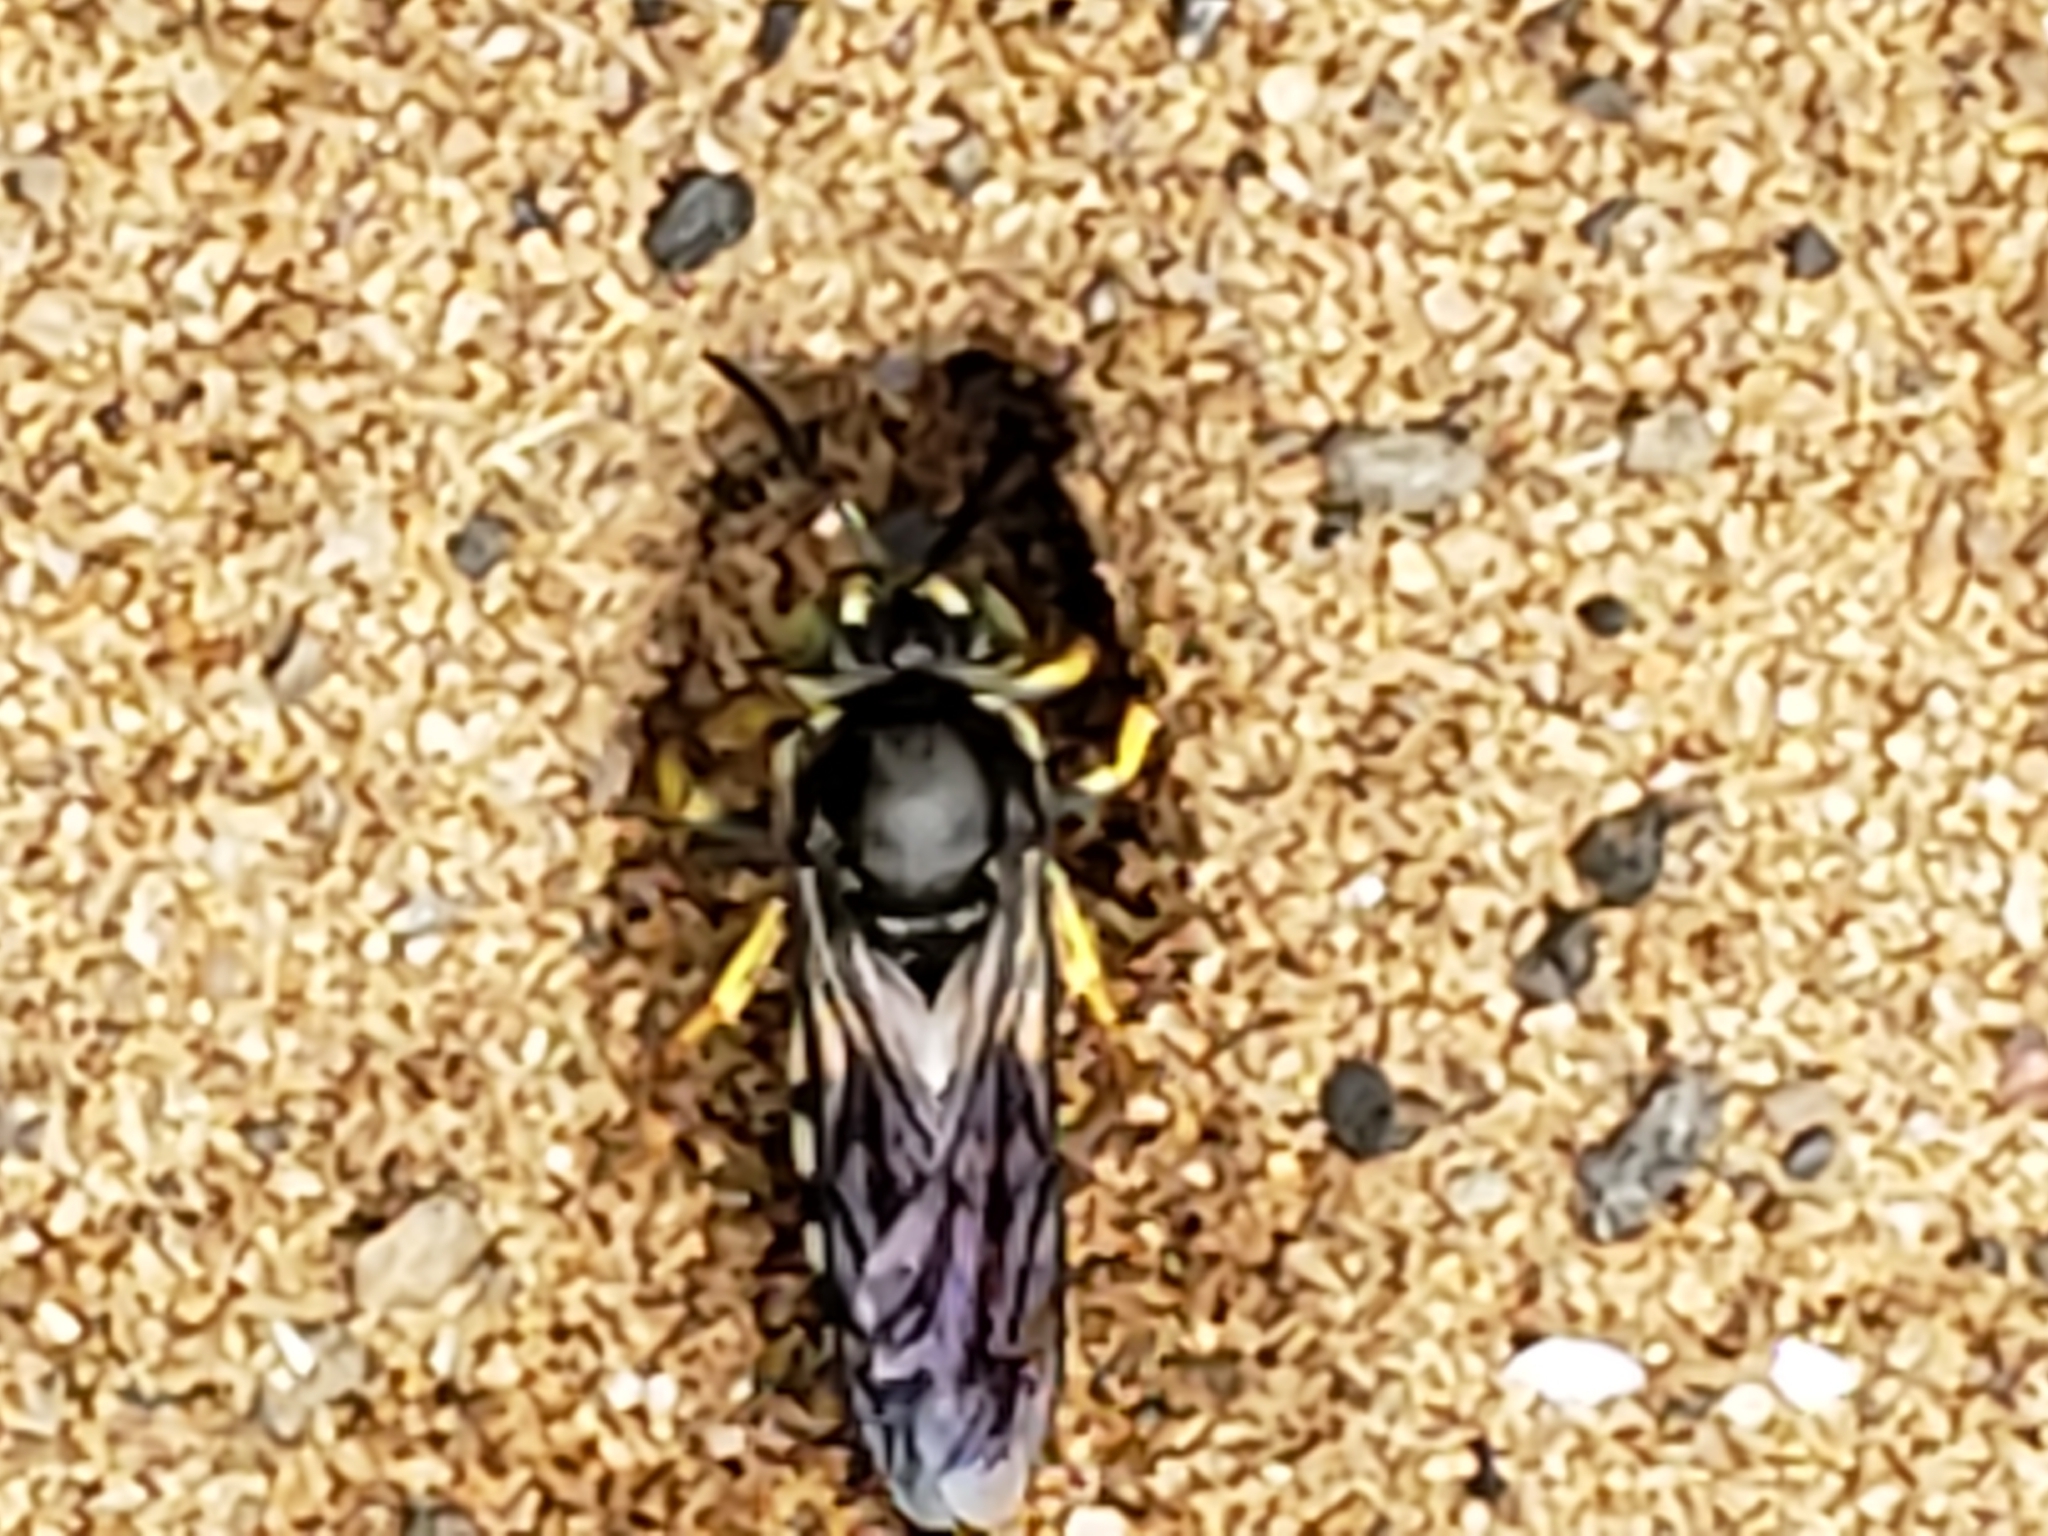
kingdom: Animalia
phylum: Arthropoda
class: Insecta
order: Hymenoptera
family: Crabronidae
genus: Bicyrtes
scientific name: Bicyrtes quadrifasciatus
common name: Four-banded stink bug hunter wasp
